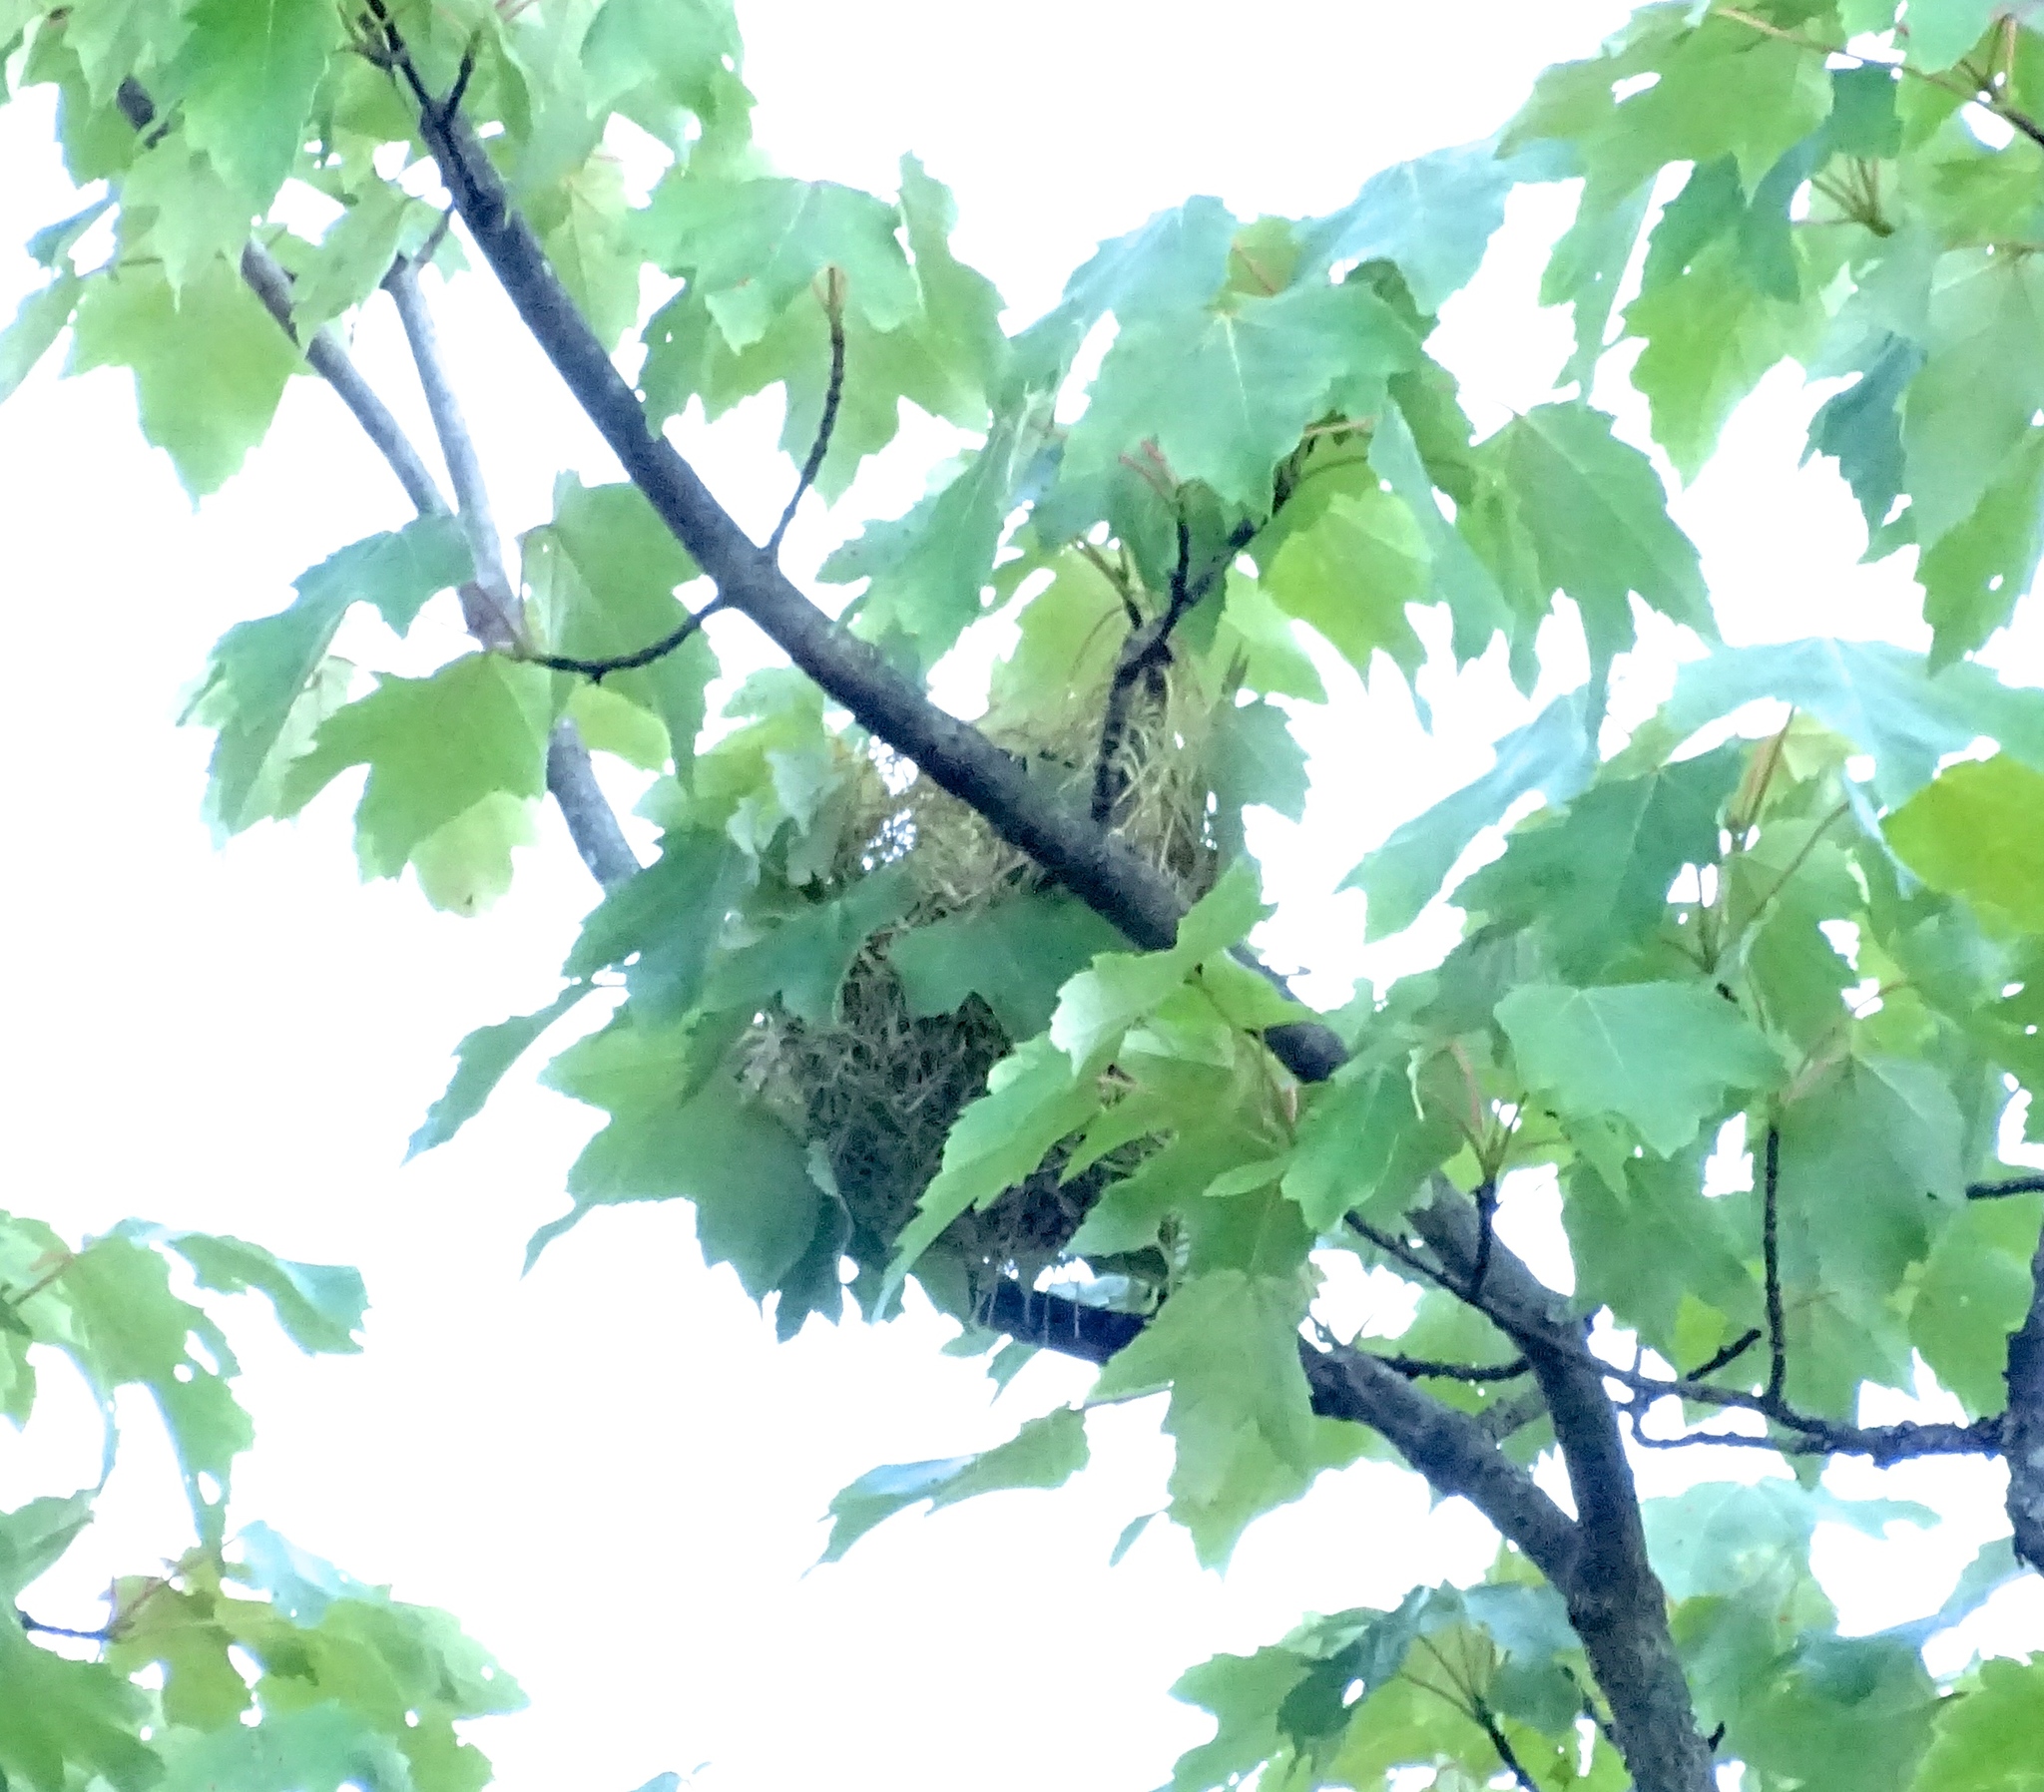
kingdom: Animalia
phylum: Chordata
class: Aves
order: Passeriformes
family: Icteridae
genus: Icterus
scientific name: Icterus spurius
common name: Orchard oriole
